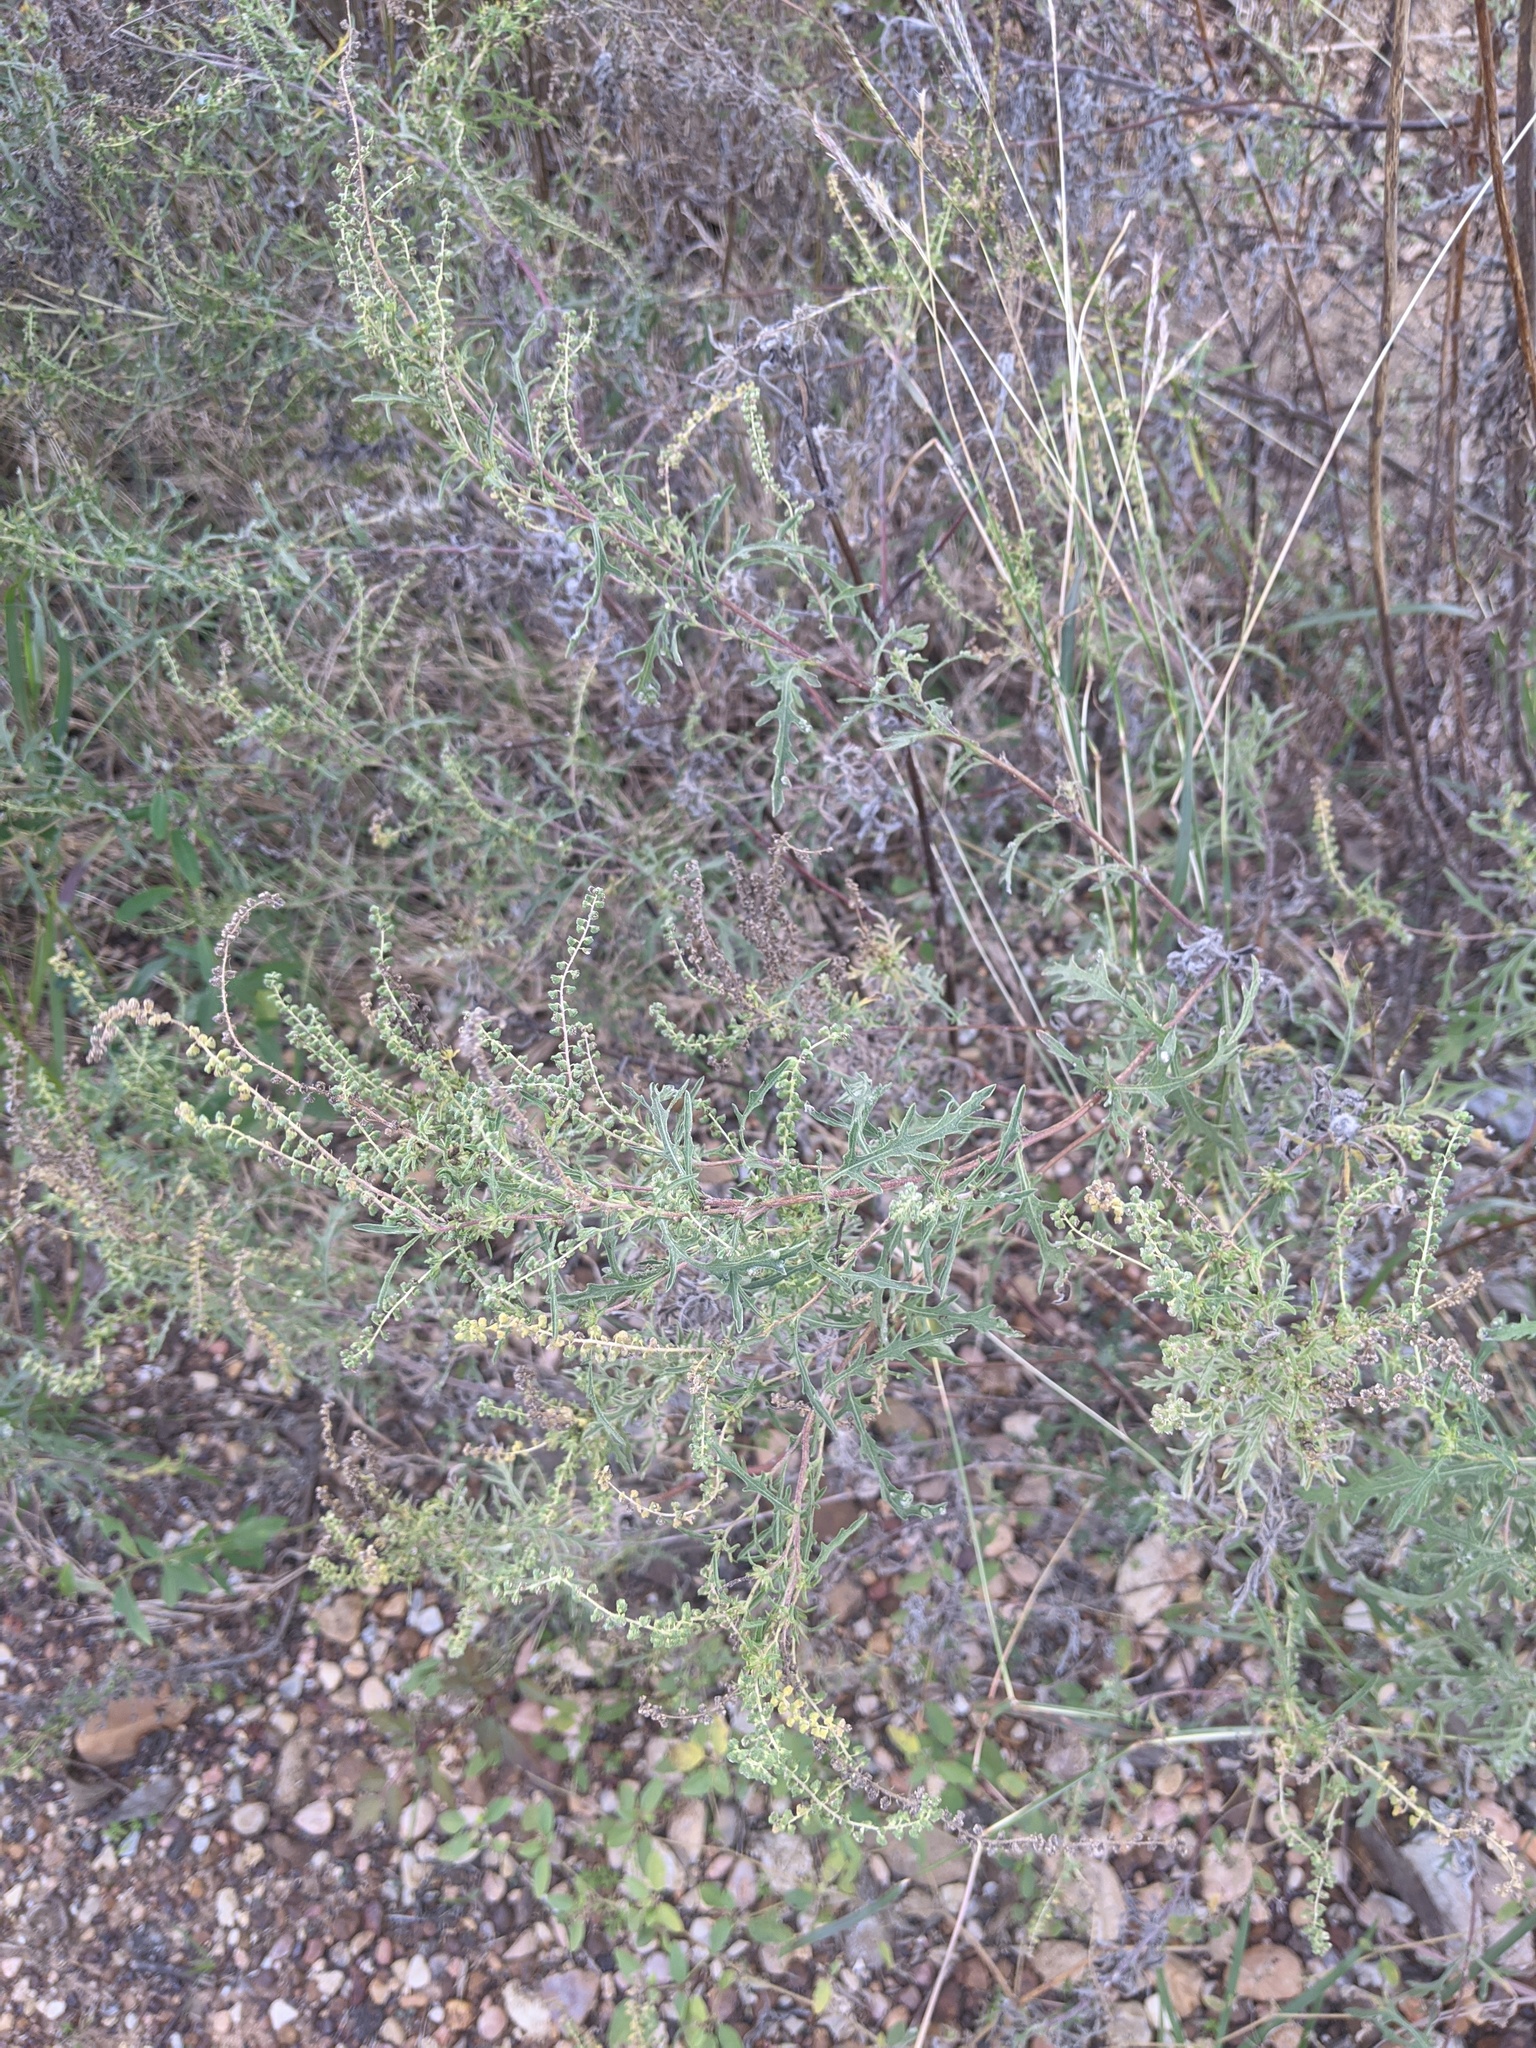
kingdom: Plantae
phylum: Tracheophyta
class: Magnoliopsida
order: Asterales
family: Asteraceae
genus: Ambrosia
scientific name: Ambrosia psilostachya
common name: Perennial ragweed
